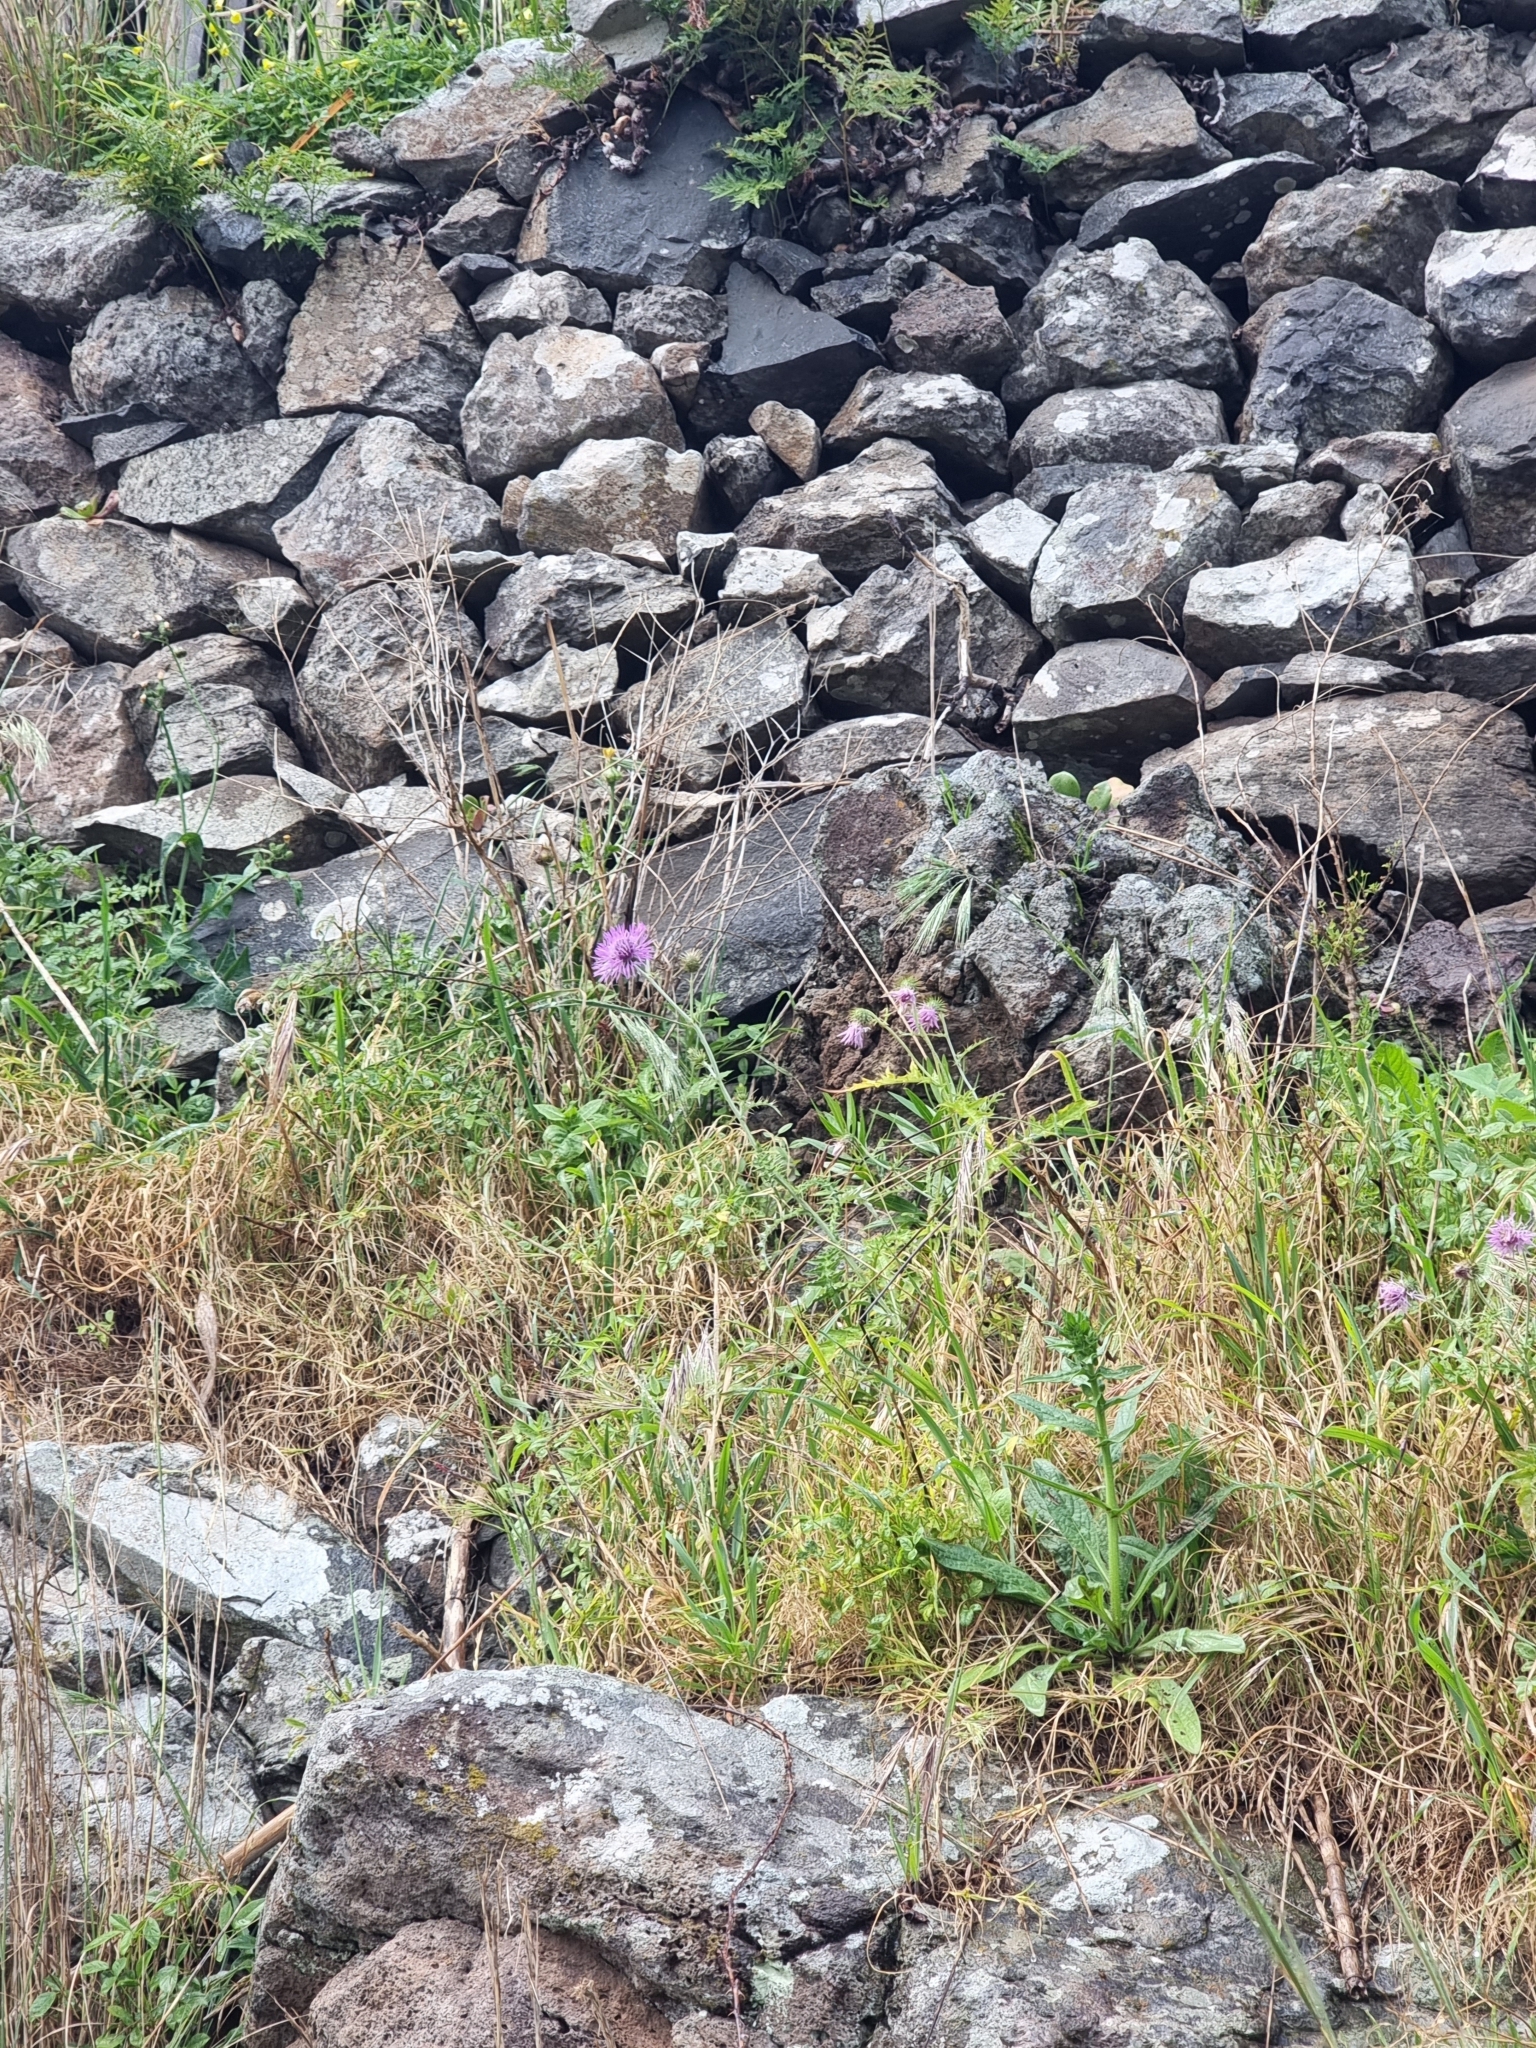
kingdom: Plantae
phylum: Tracheophyta
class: Magnoliopsida
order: Asterales
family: Asteraceae
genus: Galactites
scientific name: Galactites tomentosa
